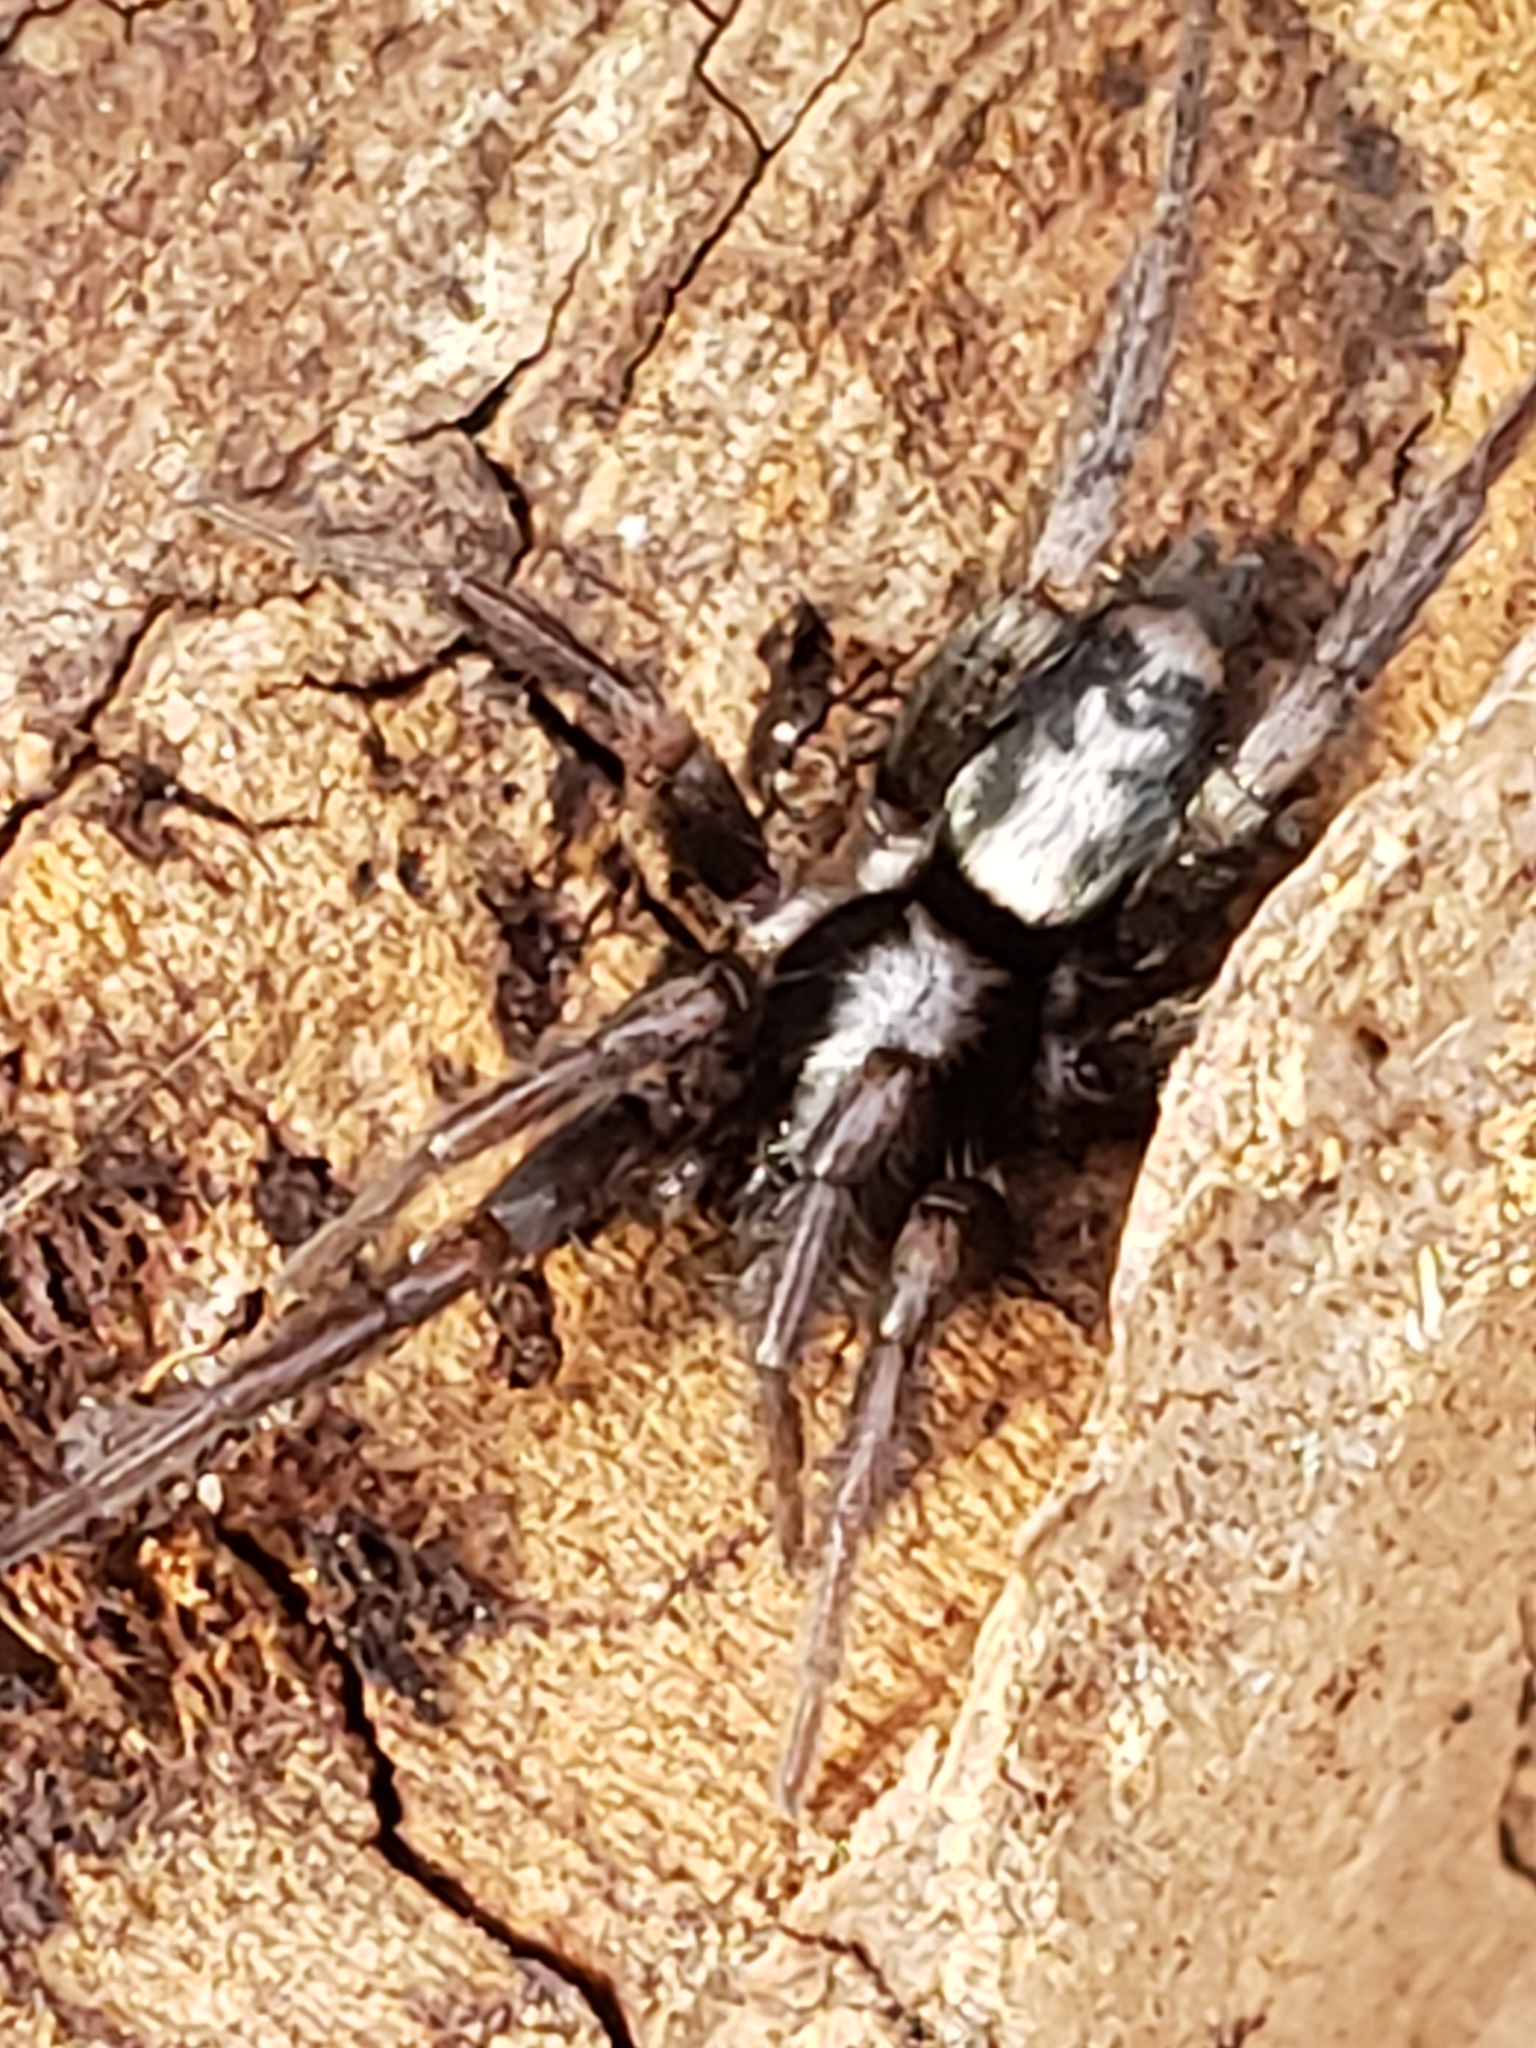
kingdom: Animalia
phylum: Arthropoda
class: Arachnida
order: Araneae
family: Gnaphosidae
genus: Herpyllus
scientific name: Herpyllus ecclesiasticus
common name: Eastern parson spider
